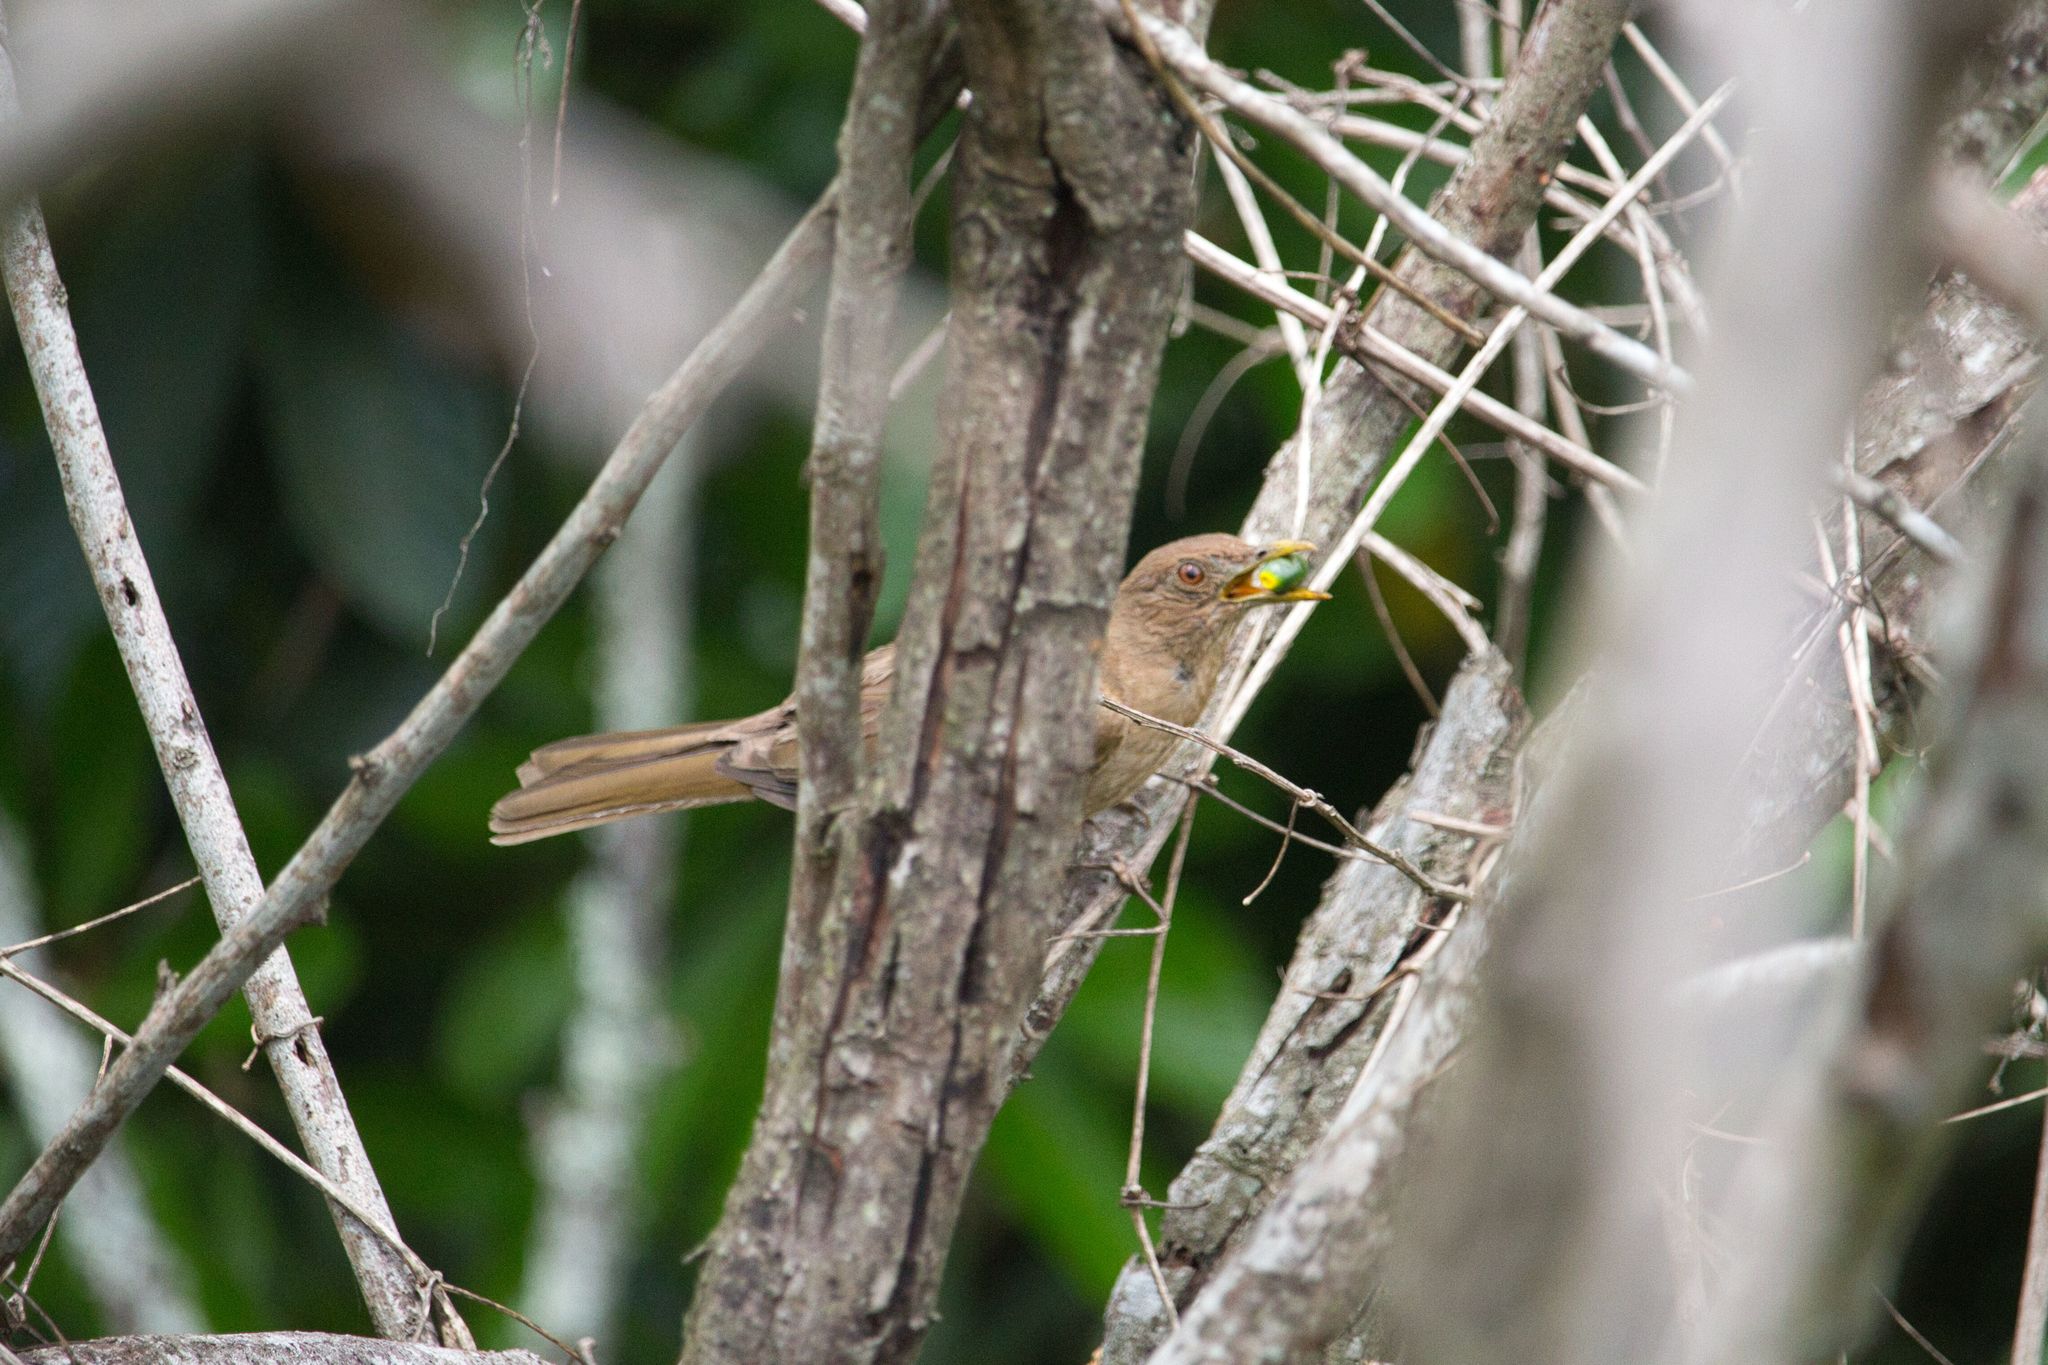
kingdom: Animalia
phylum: Chordata
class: Aves
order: Passeriformes
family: Turdidae
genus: Turdus
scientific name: Turdus grayi
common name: Clay-colored thrush
